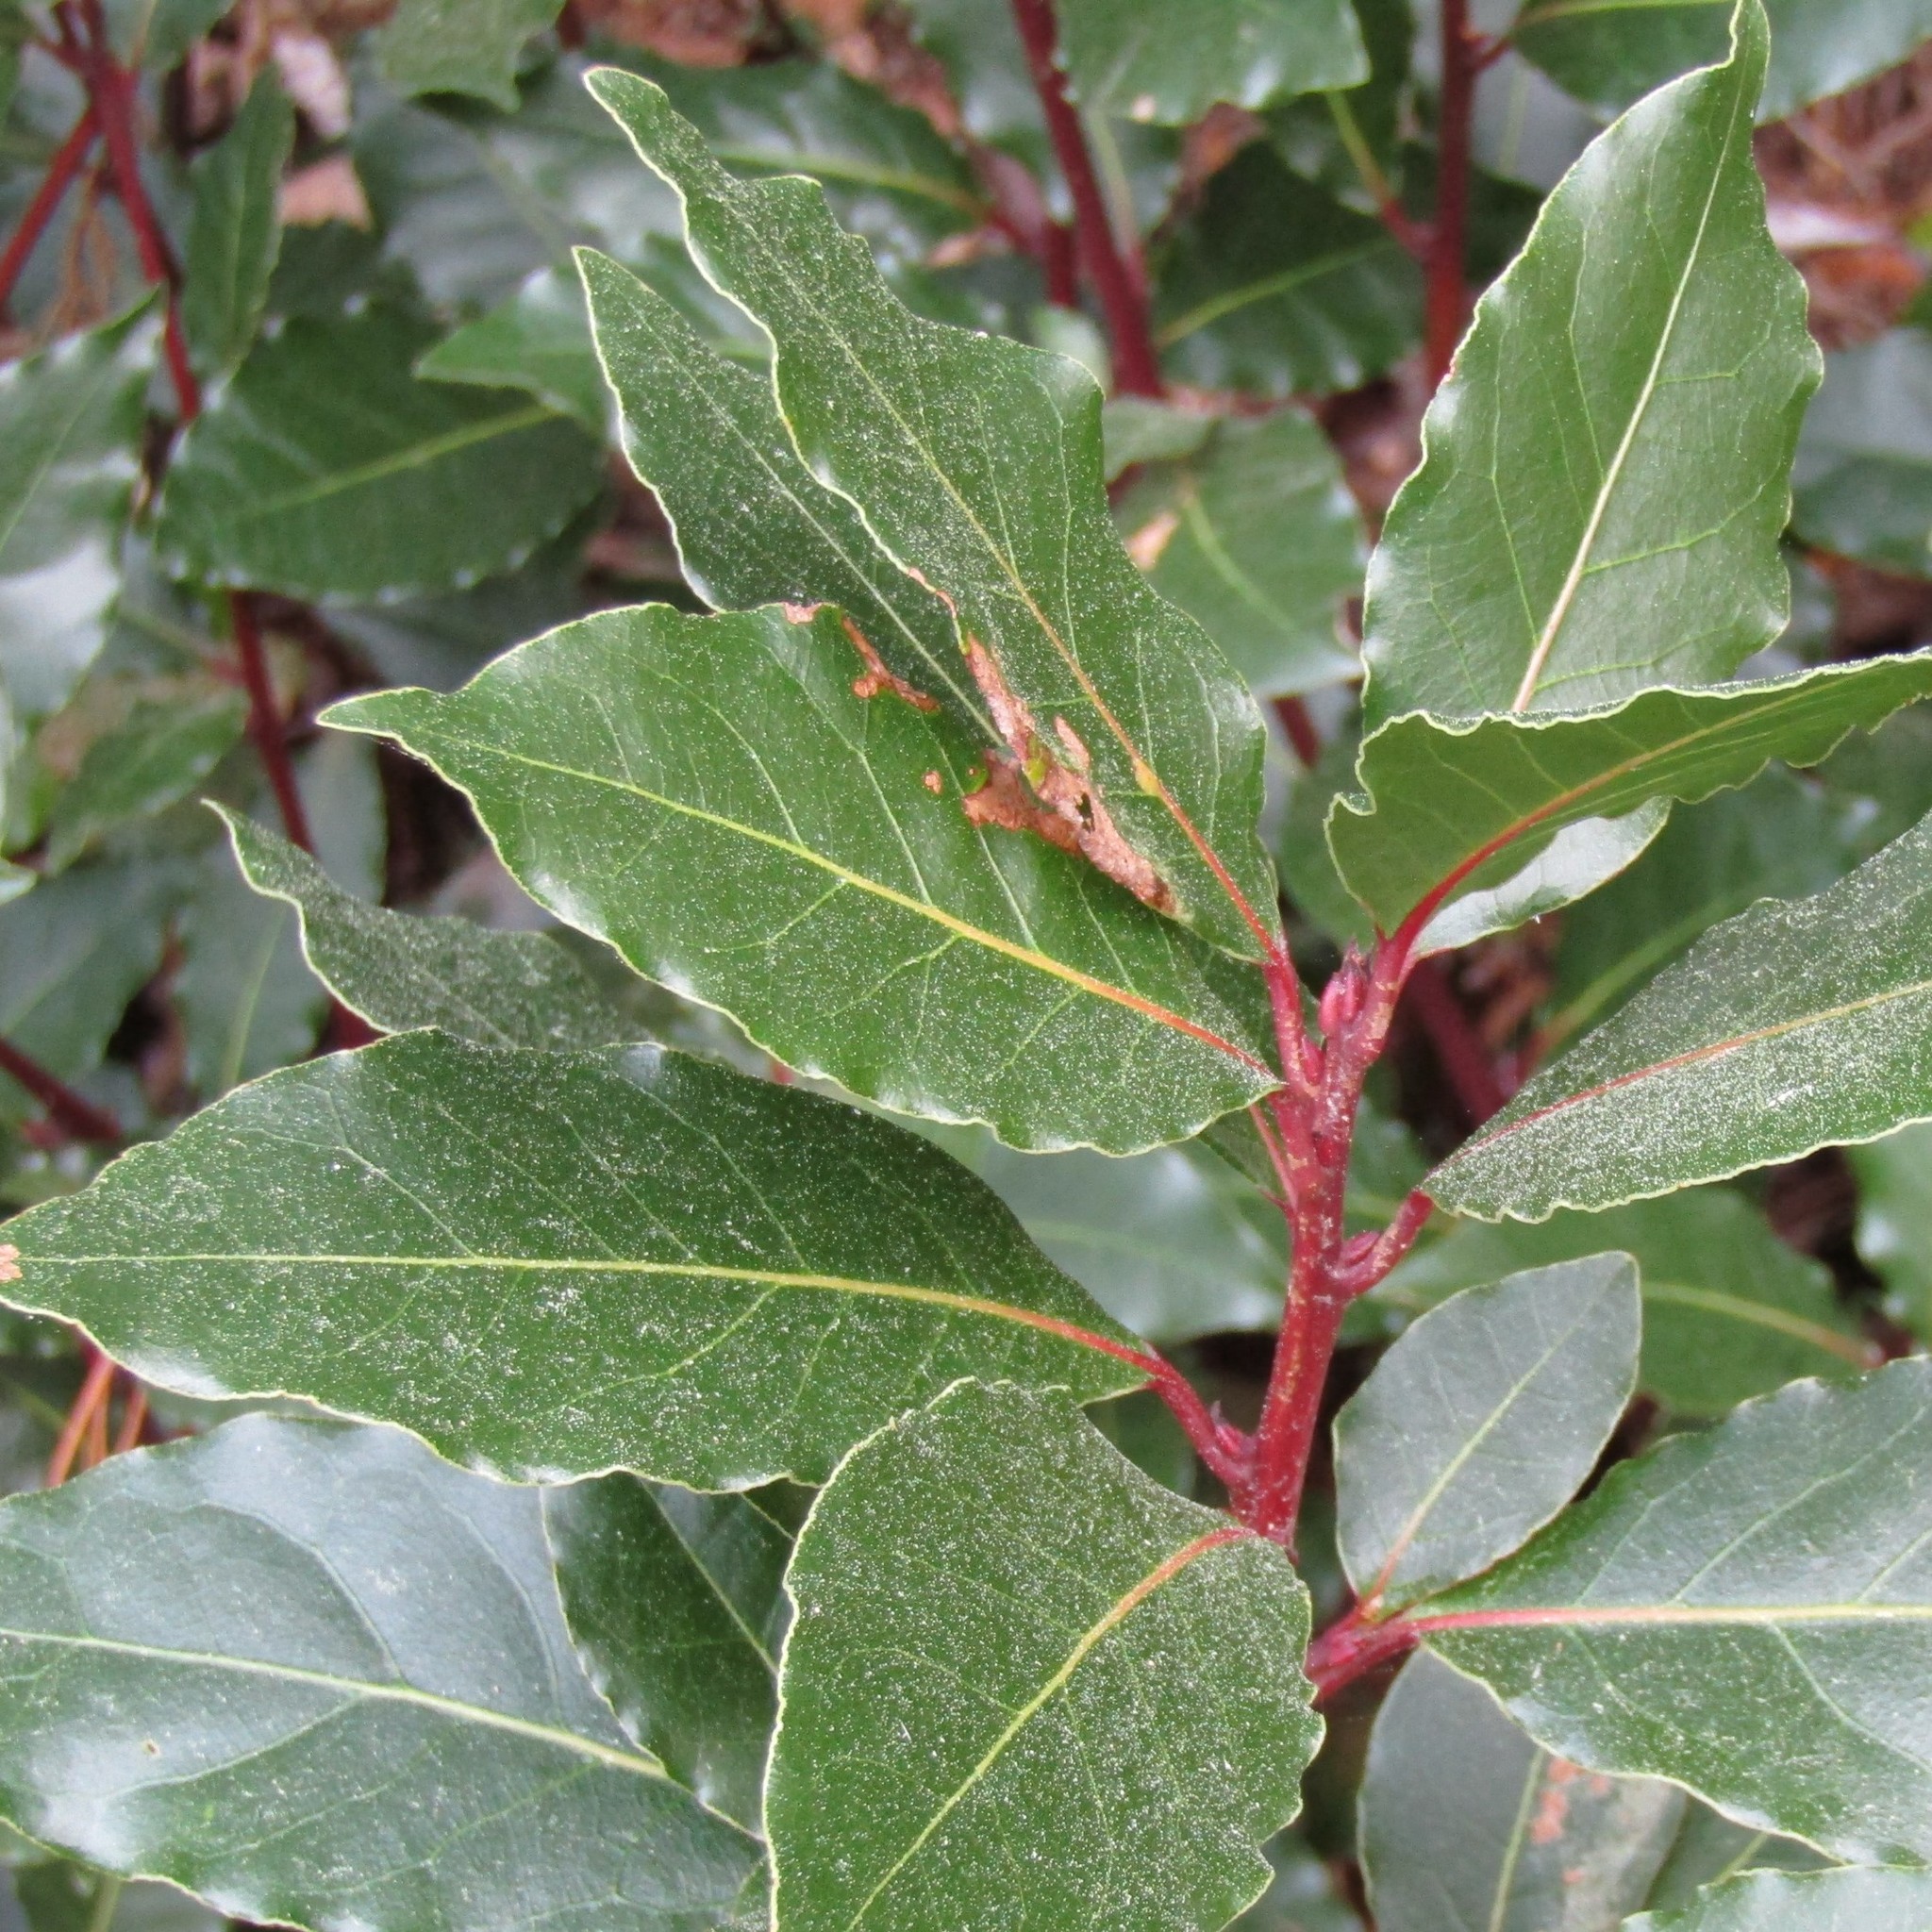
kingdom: Plantae
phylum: Tracheophyta
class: Magnoliopsida
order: Laurales
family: Lauraceae
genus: Laurus
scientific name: Laurus nobilis
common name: Bay
